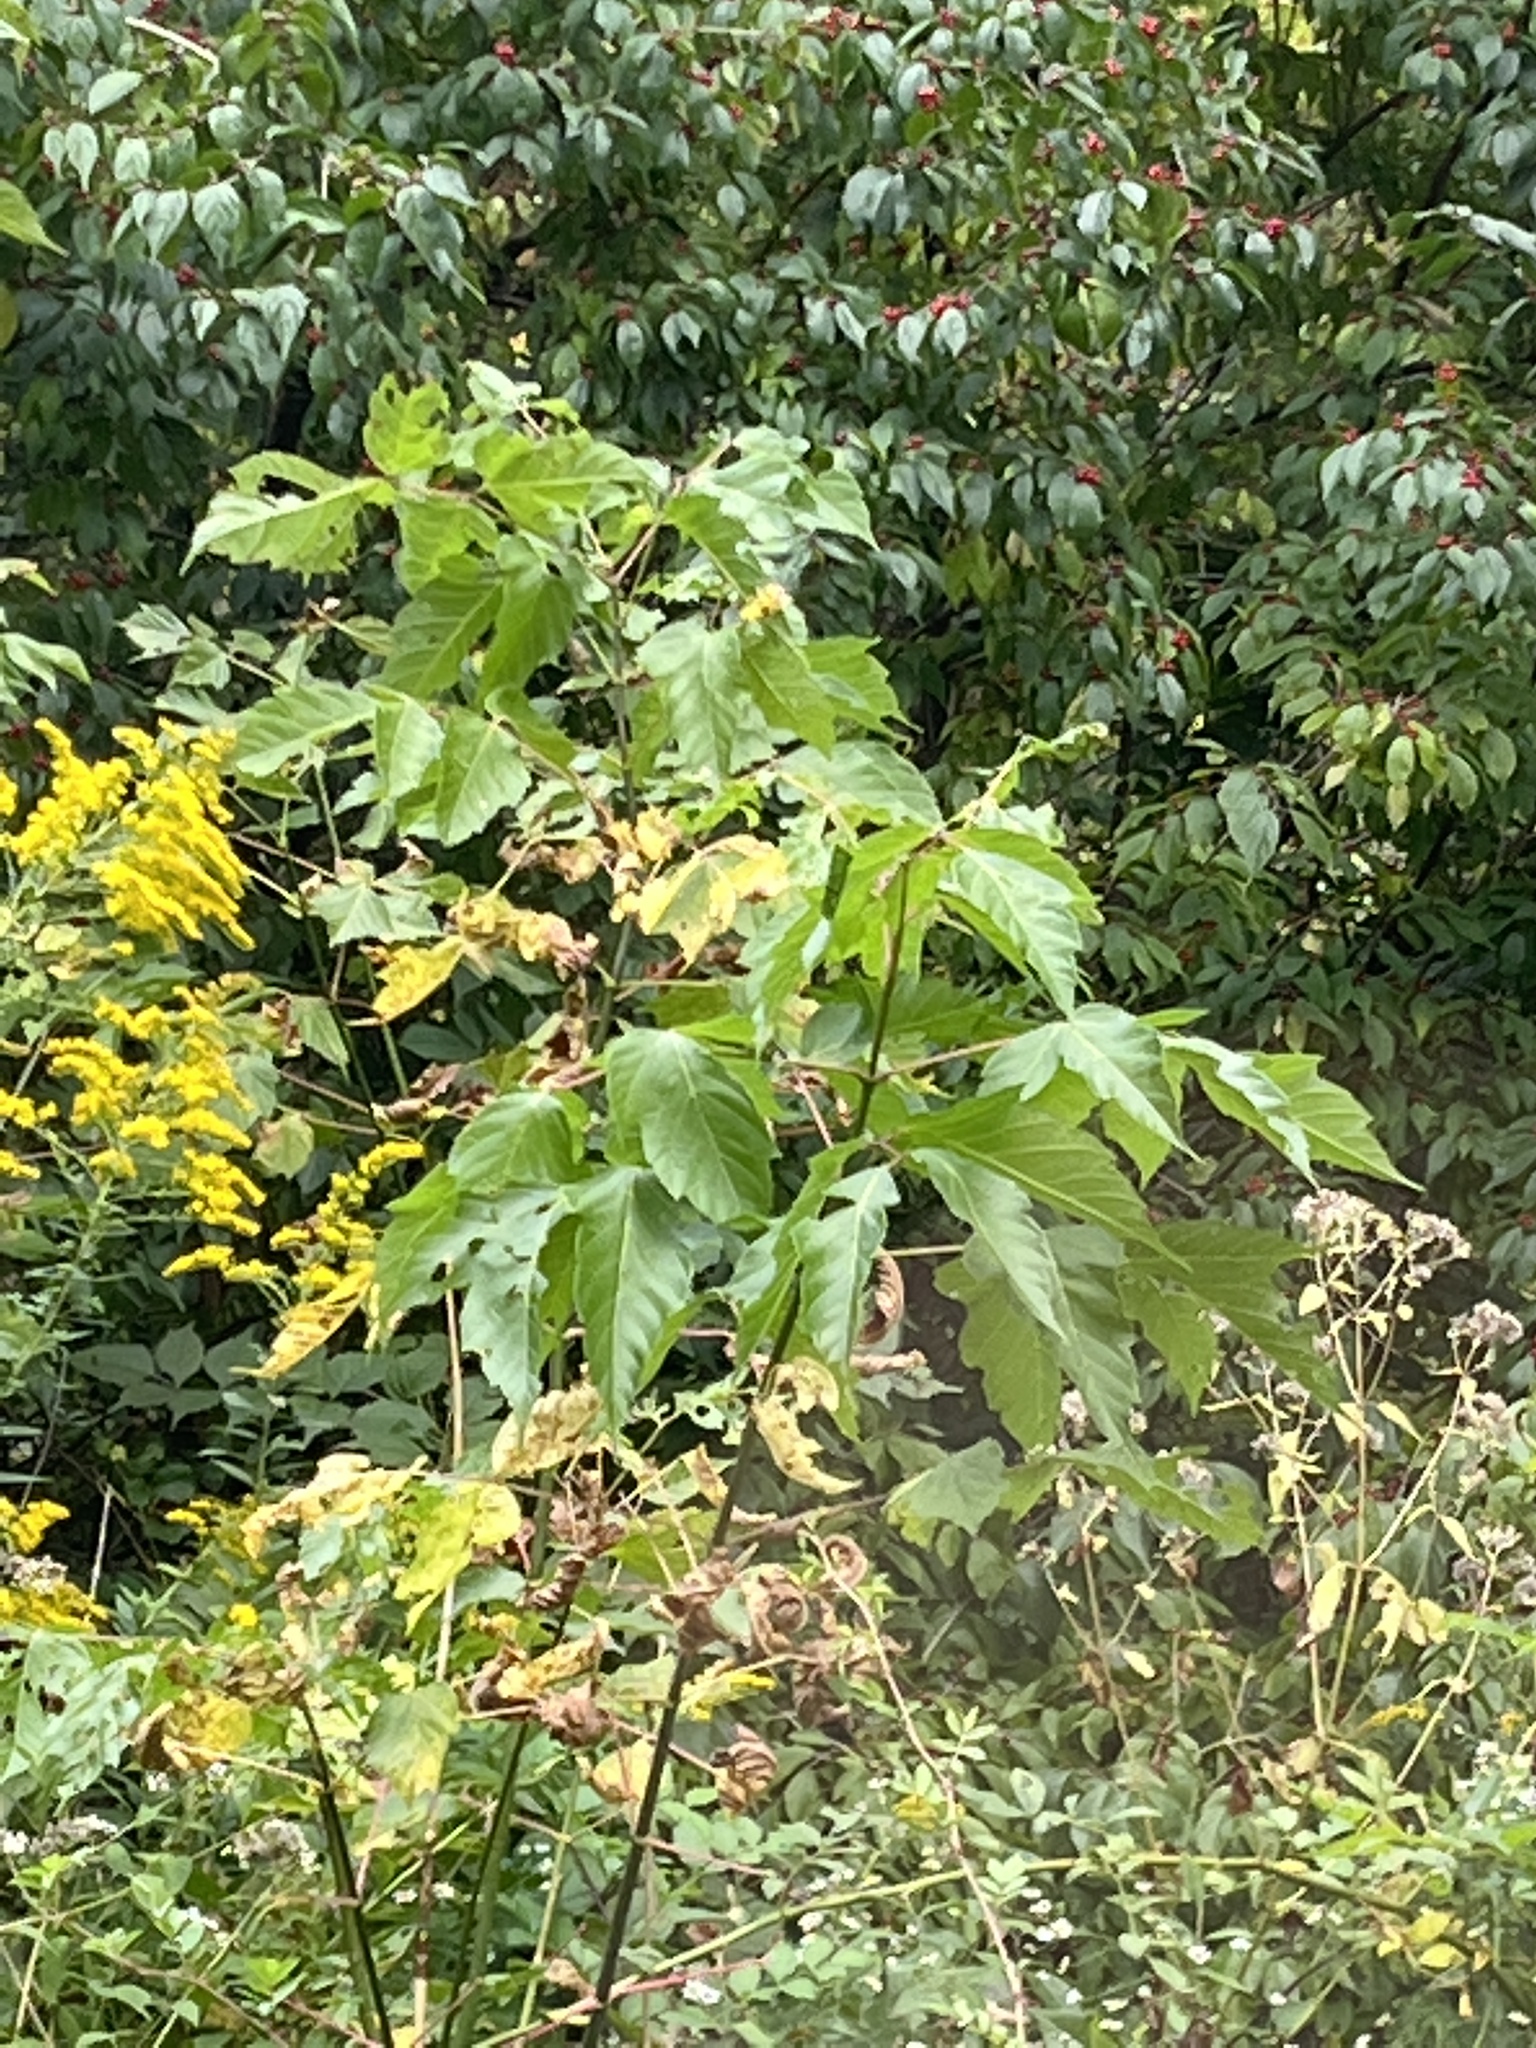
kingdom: Plantae
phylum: Tracheophyta
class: Magnoliopsida
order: Sapindales
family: Sapindaceae
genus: Acer
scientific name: Acer negundo
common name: Ashleaf maple
